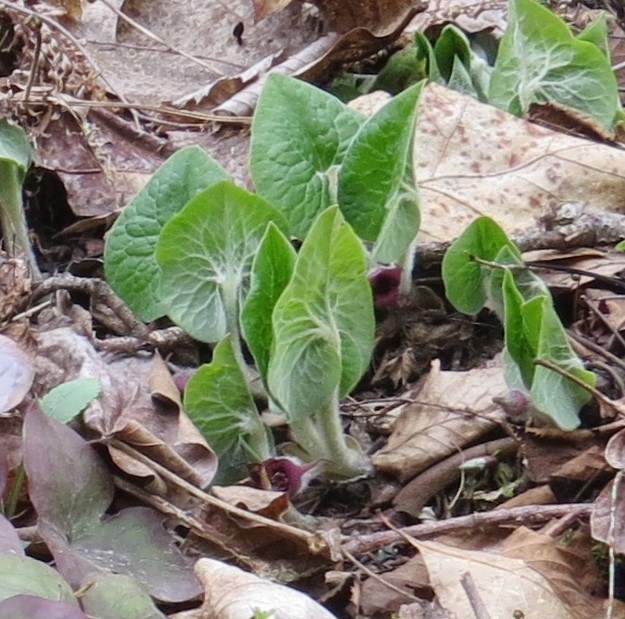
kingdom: Plantae
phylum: Tracheophyta
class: Magnoliopsida
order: Piperales
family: Aristolochiaceae
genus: Asarum
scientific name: Asarum canadense
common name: Wild ginger
